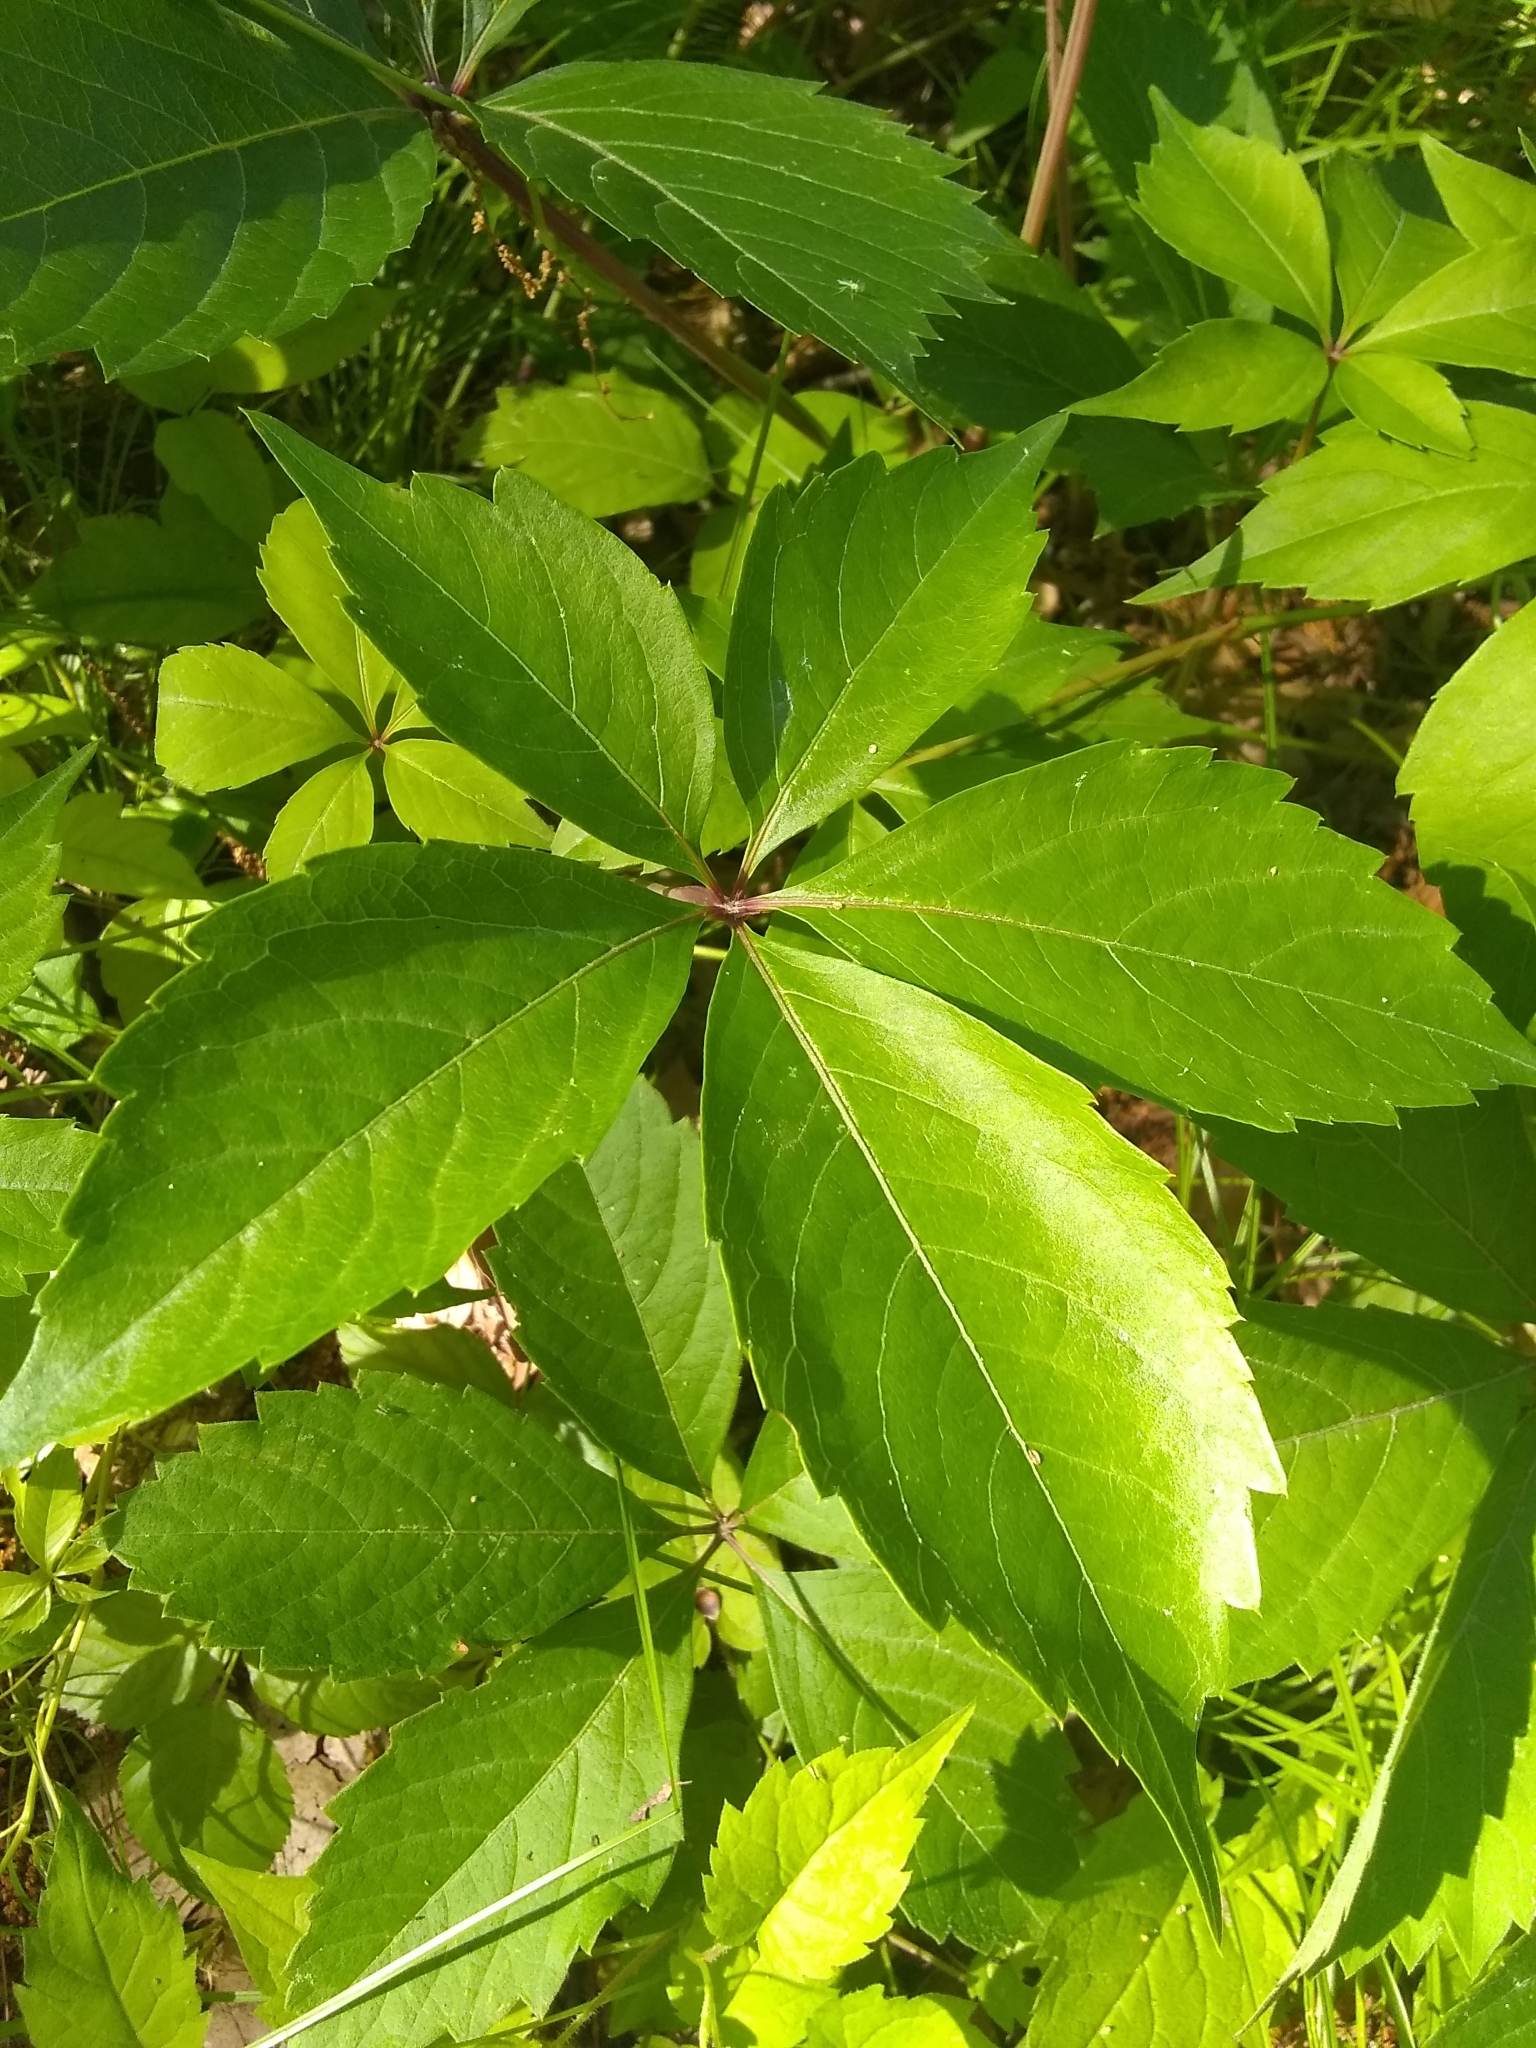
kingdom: Plantae
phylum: Tracheophyta
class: Magnoliopsida
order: Vitales
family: Vitaceae
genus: Parthenocissus
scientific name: Parthenocissus quinquefolia
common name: Virginia-creeper
